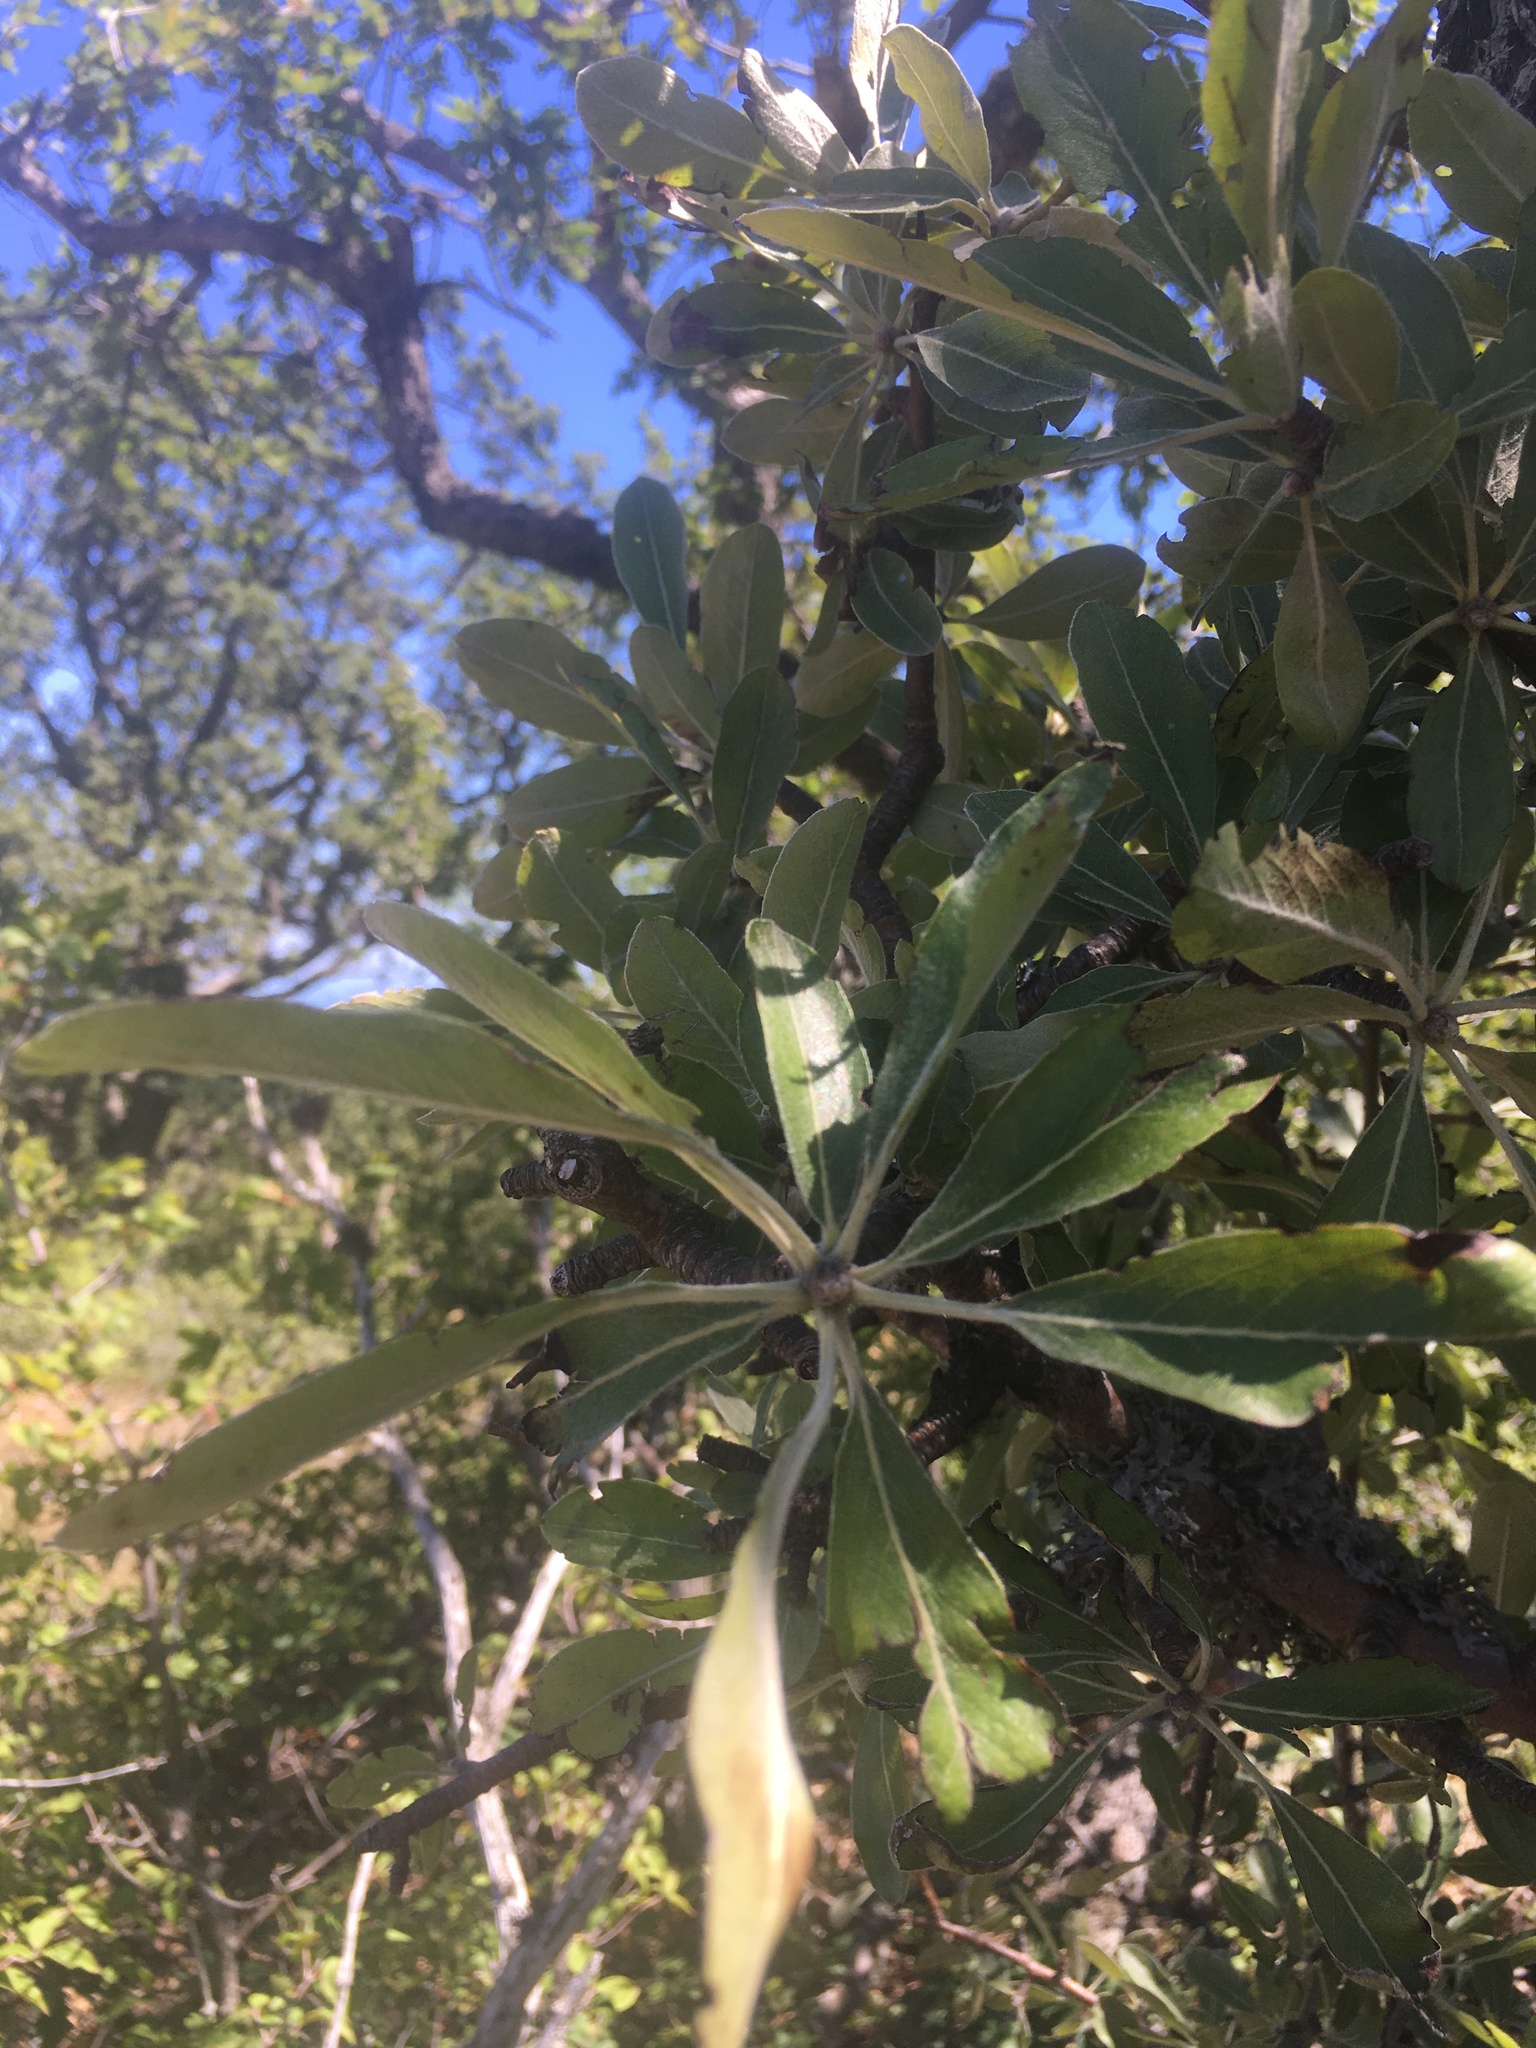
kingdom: Plantae
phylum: Tracheophyta
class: Magnoliopsida
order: Rosales
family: Rosaceae
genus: Pyrus
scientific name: Pyrus elaeagrifolia
